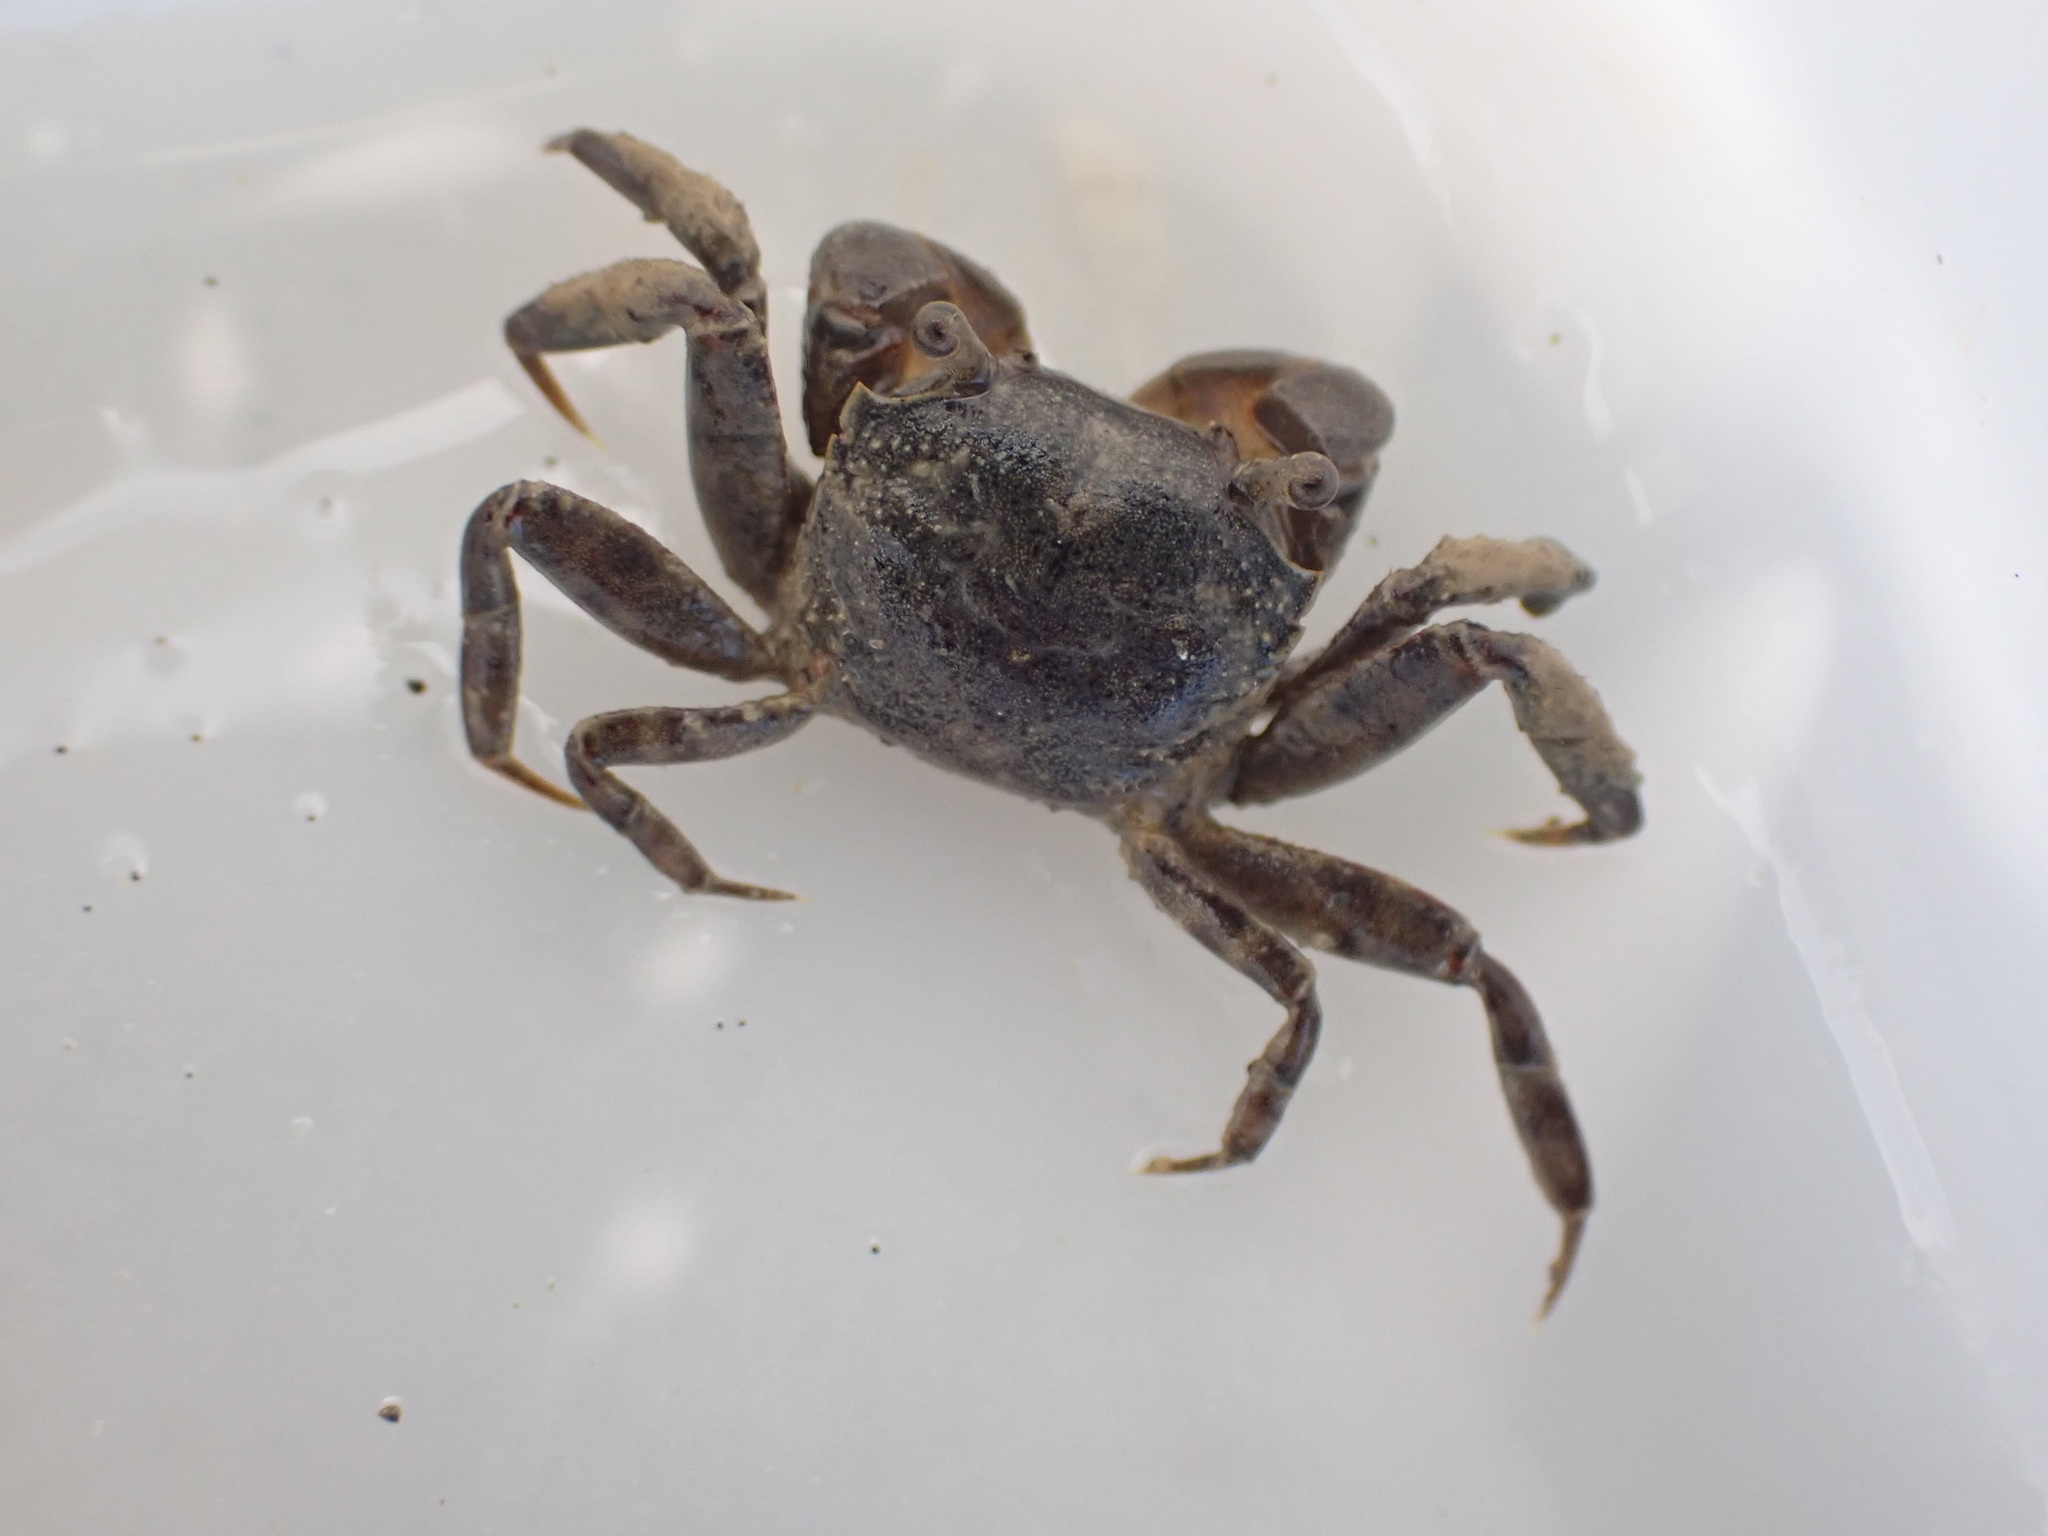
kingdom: Animalia
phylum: Arthropoda
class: Malacostraca
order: Decapoda
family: Varunidae
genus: Austrohelice
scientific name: Austrohelice crassa
